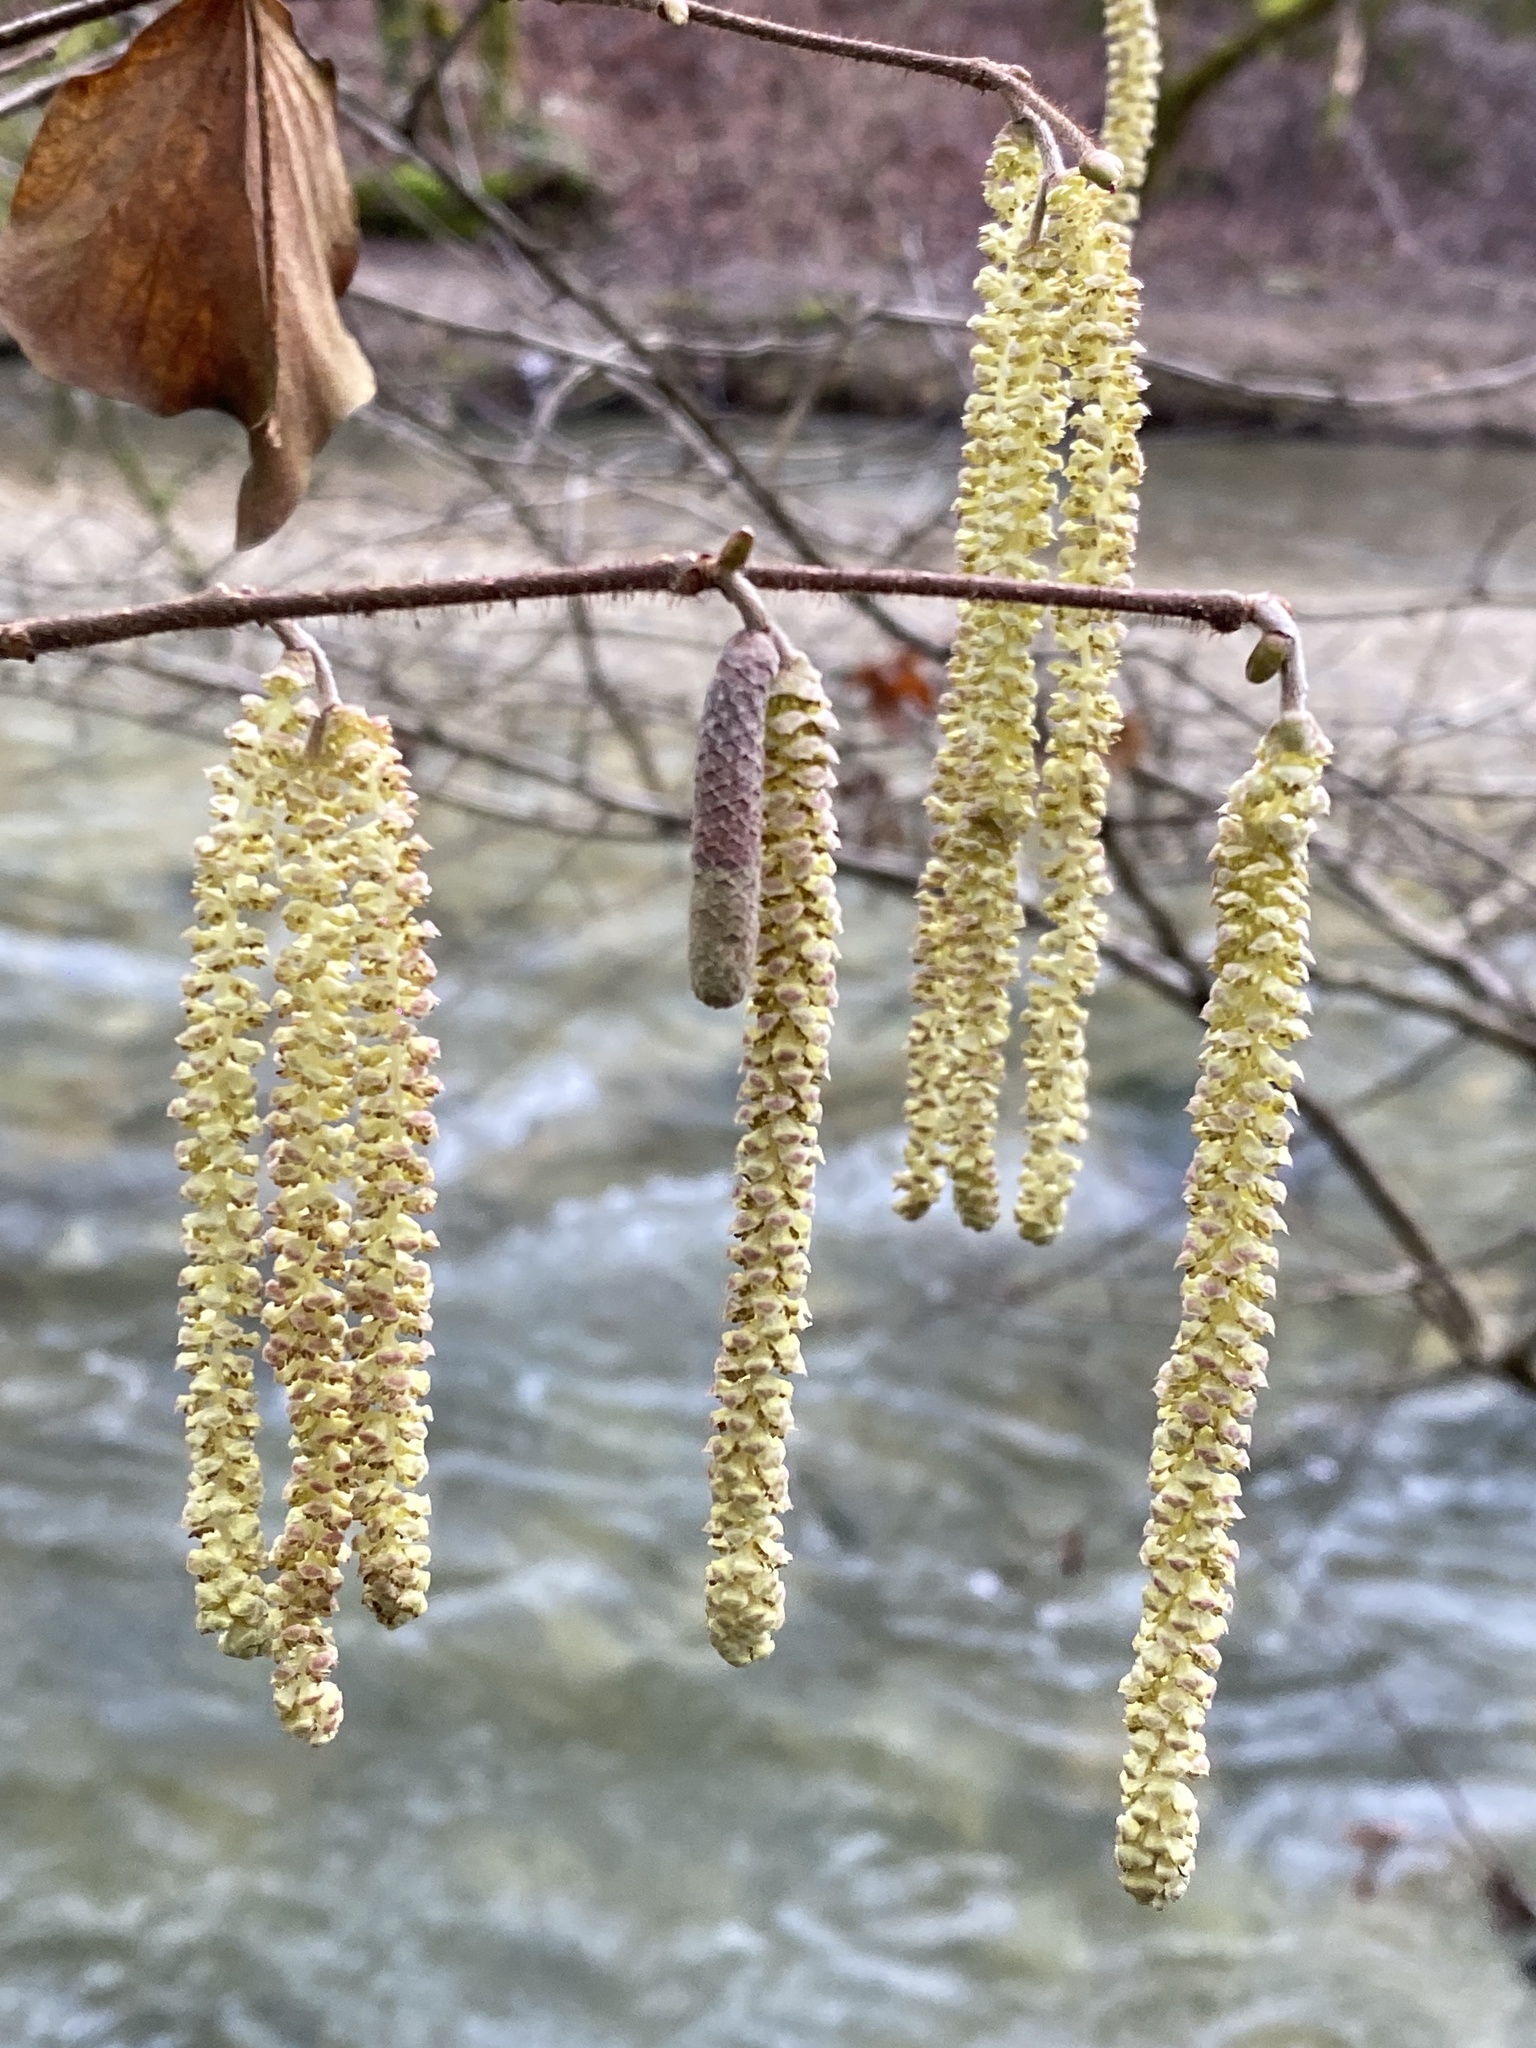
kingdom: Plantae
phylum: Tracheophyta
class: Magnoliopsida
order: Fagales
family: Betulaceae
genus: Corylus
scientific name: Corylus avellana
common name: European hazel
